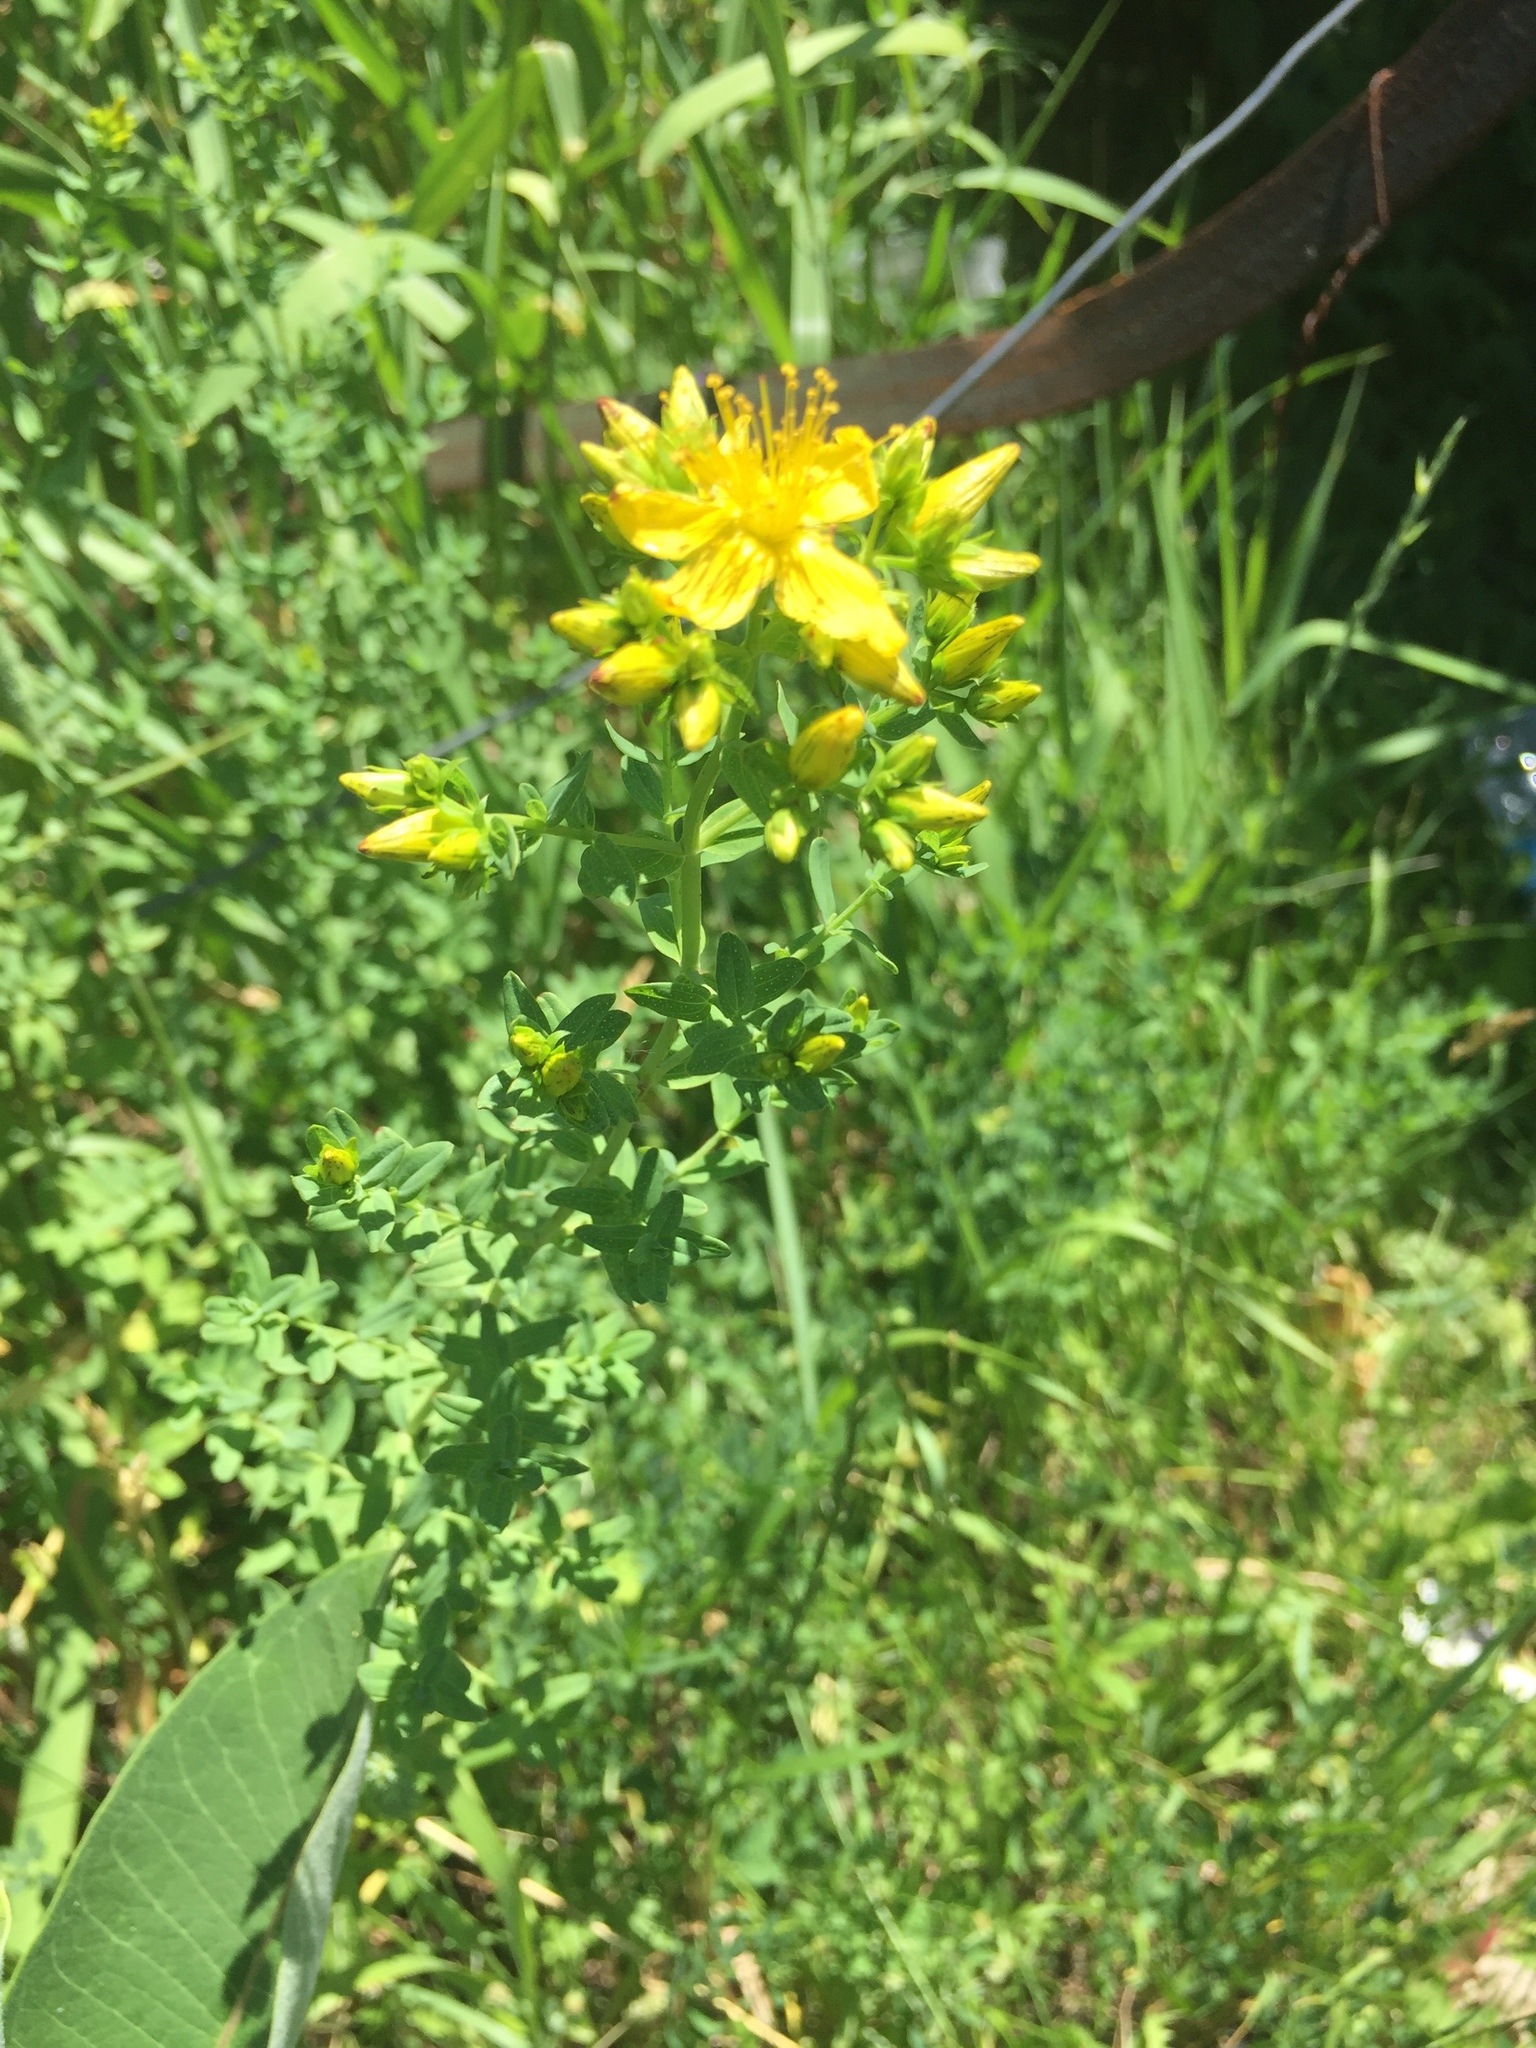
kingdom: Plantae
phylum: Tracheophyta
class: Magnoliopsida
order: Malpighiales
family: Hypericaceae
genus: Hypericum
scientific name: Hypericum perforatum
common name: Common st. johnswort
